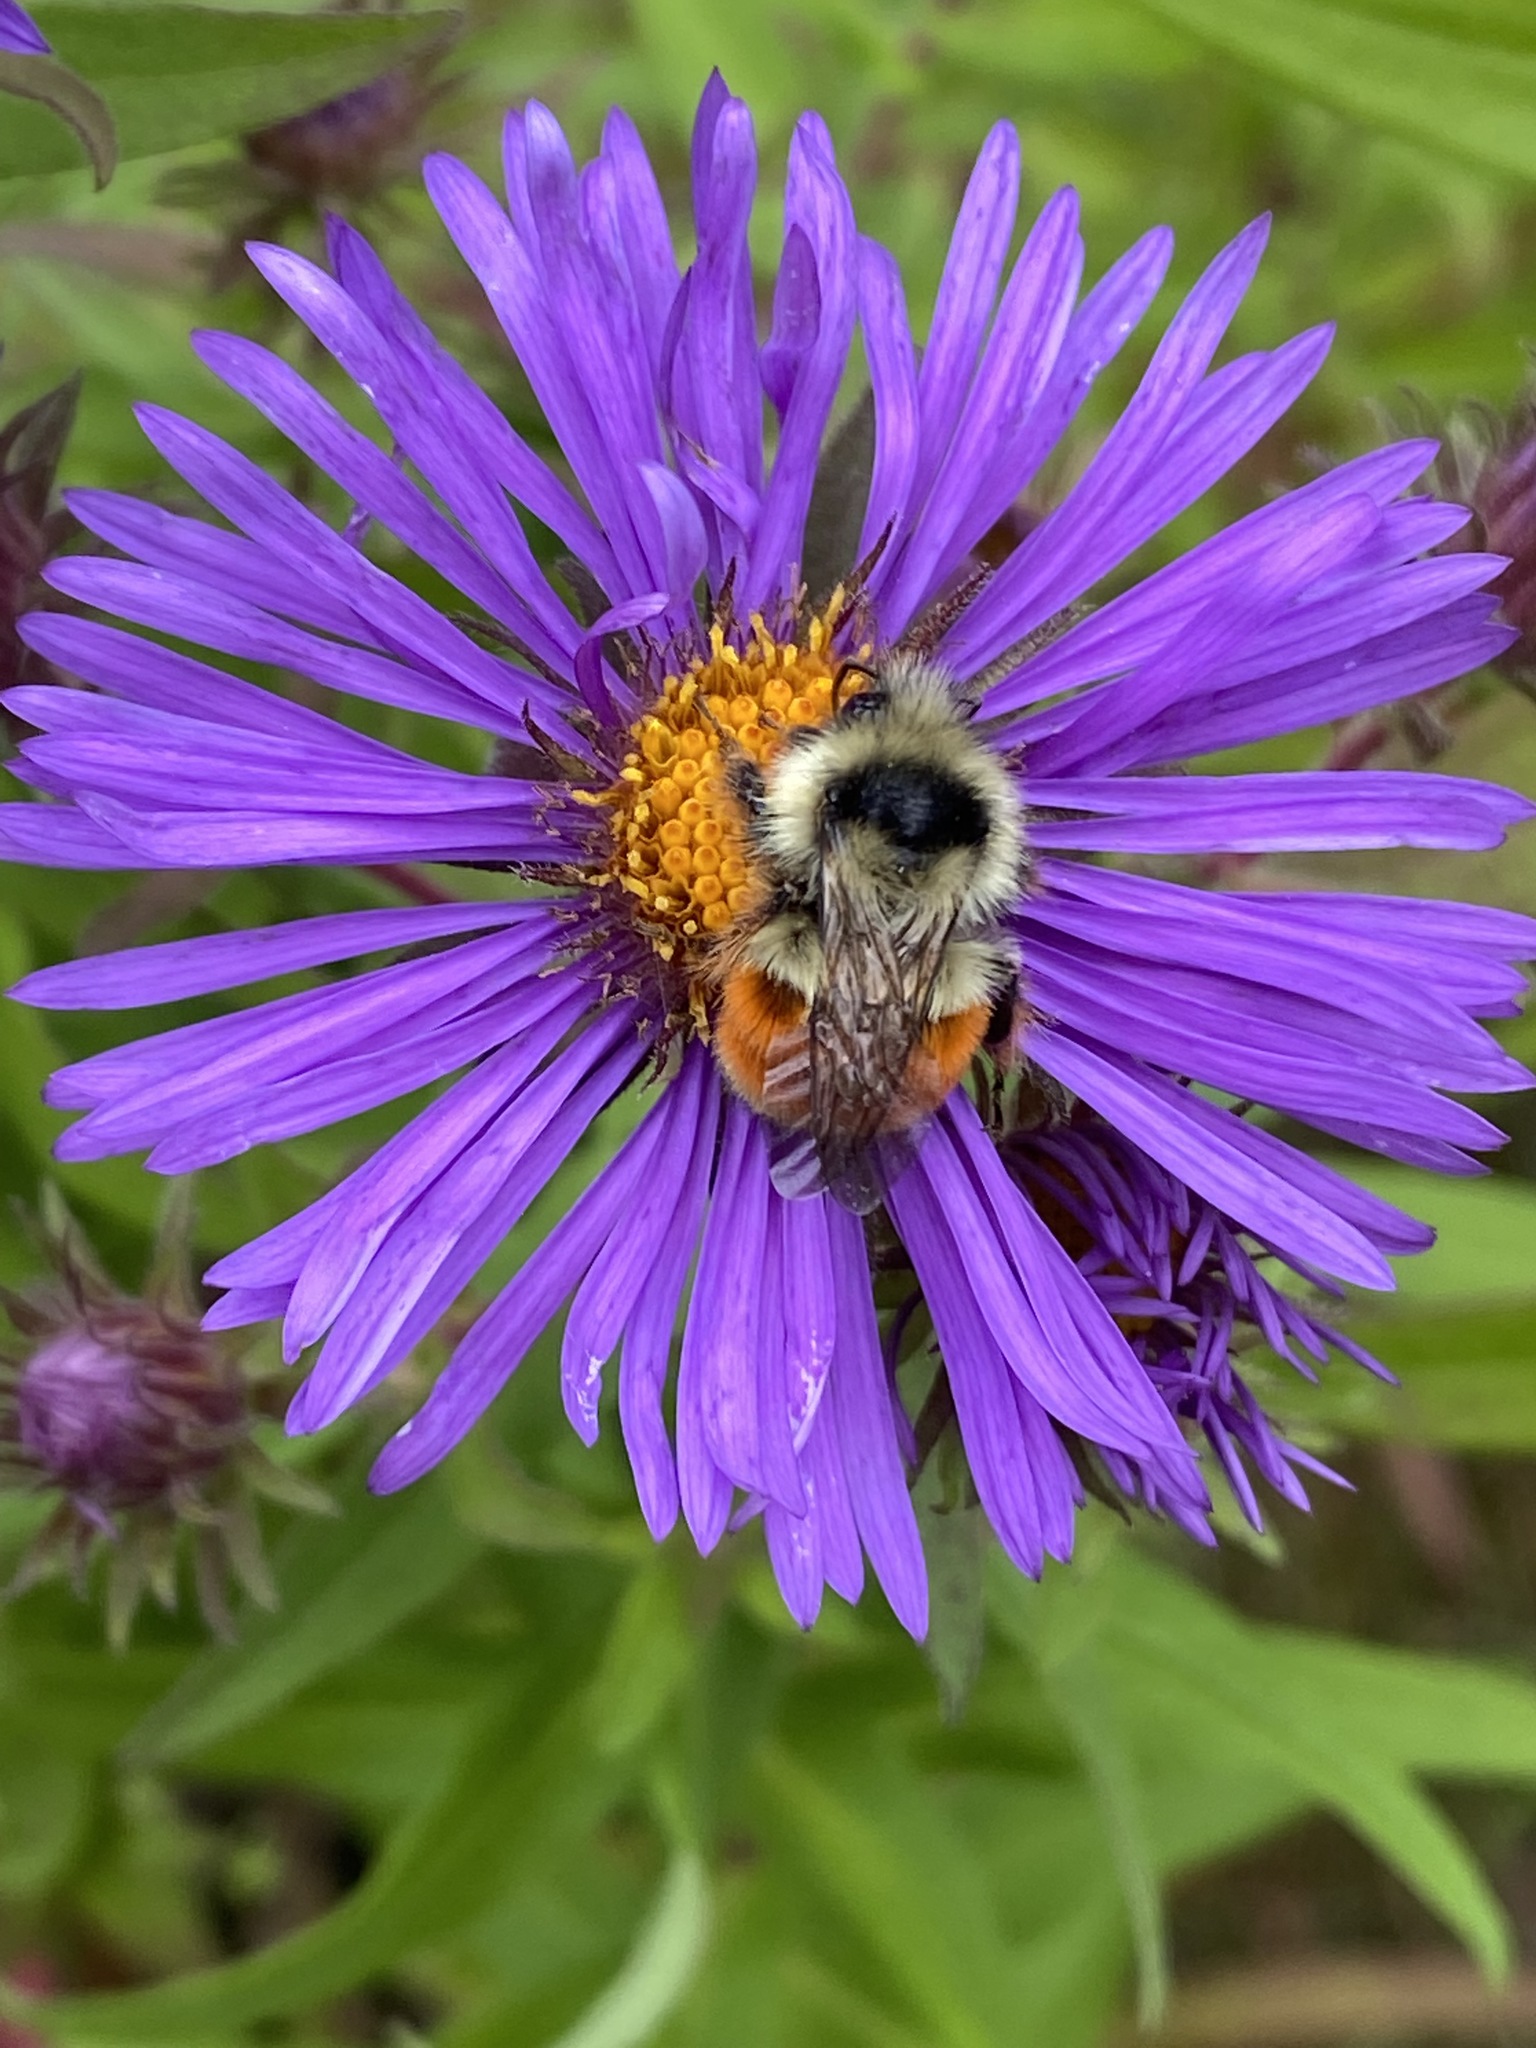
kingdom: Animalia
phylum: Arthropoda
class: Insecta
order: Hymenoptera
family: Apidae
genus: Bombus
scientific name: Bombus ternarius
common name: Tri-colored bumble bee
